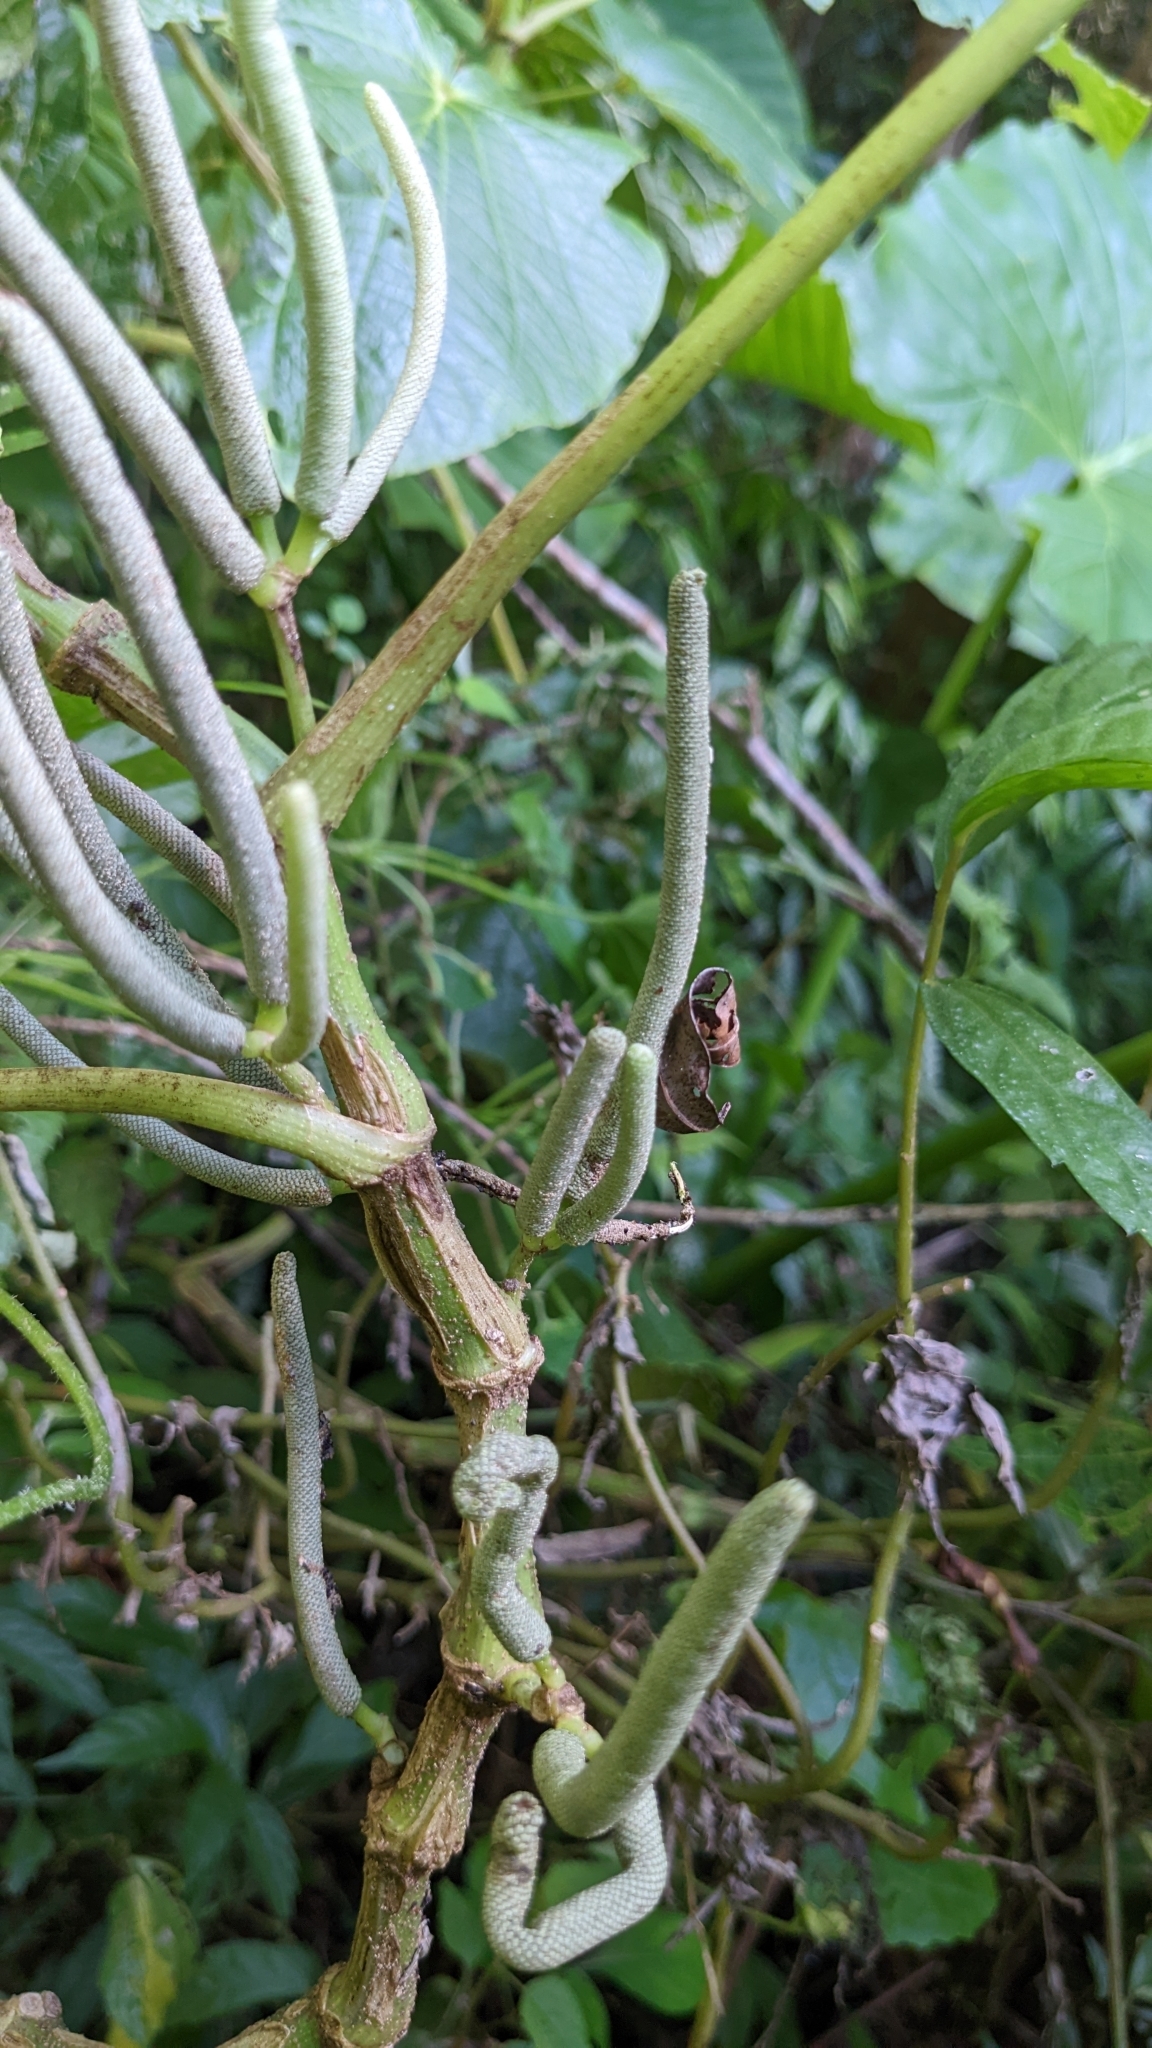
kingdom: Plantae
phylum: Tracheophyta
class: Magnoliopsida
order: Piperales
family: Piperaceae
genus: Piper
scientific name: Piper umbellatum
